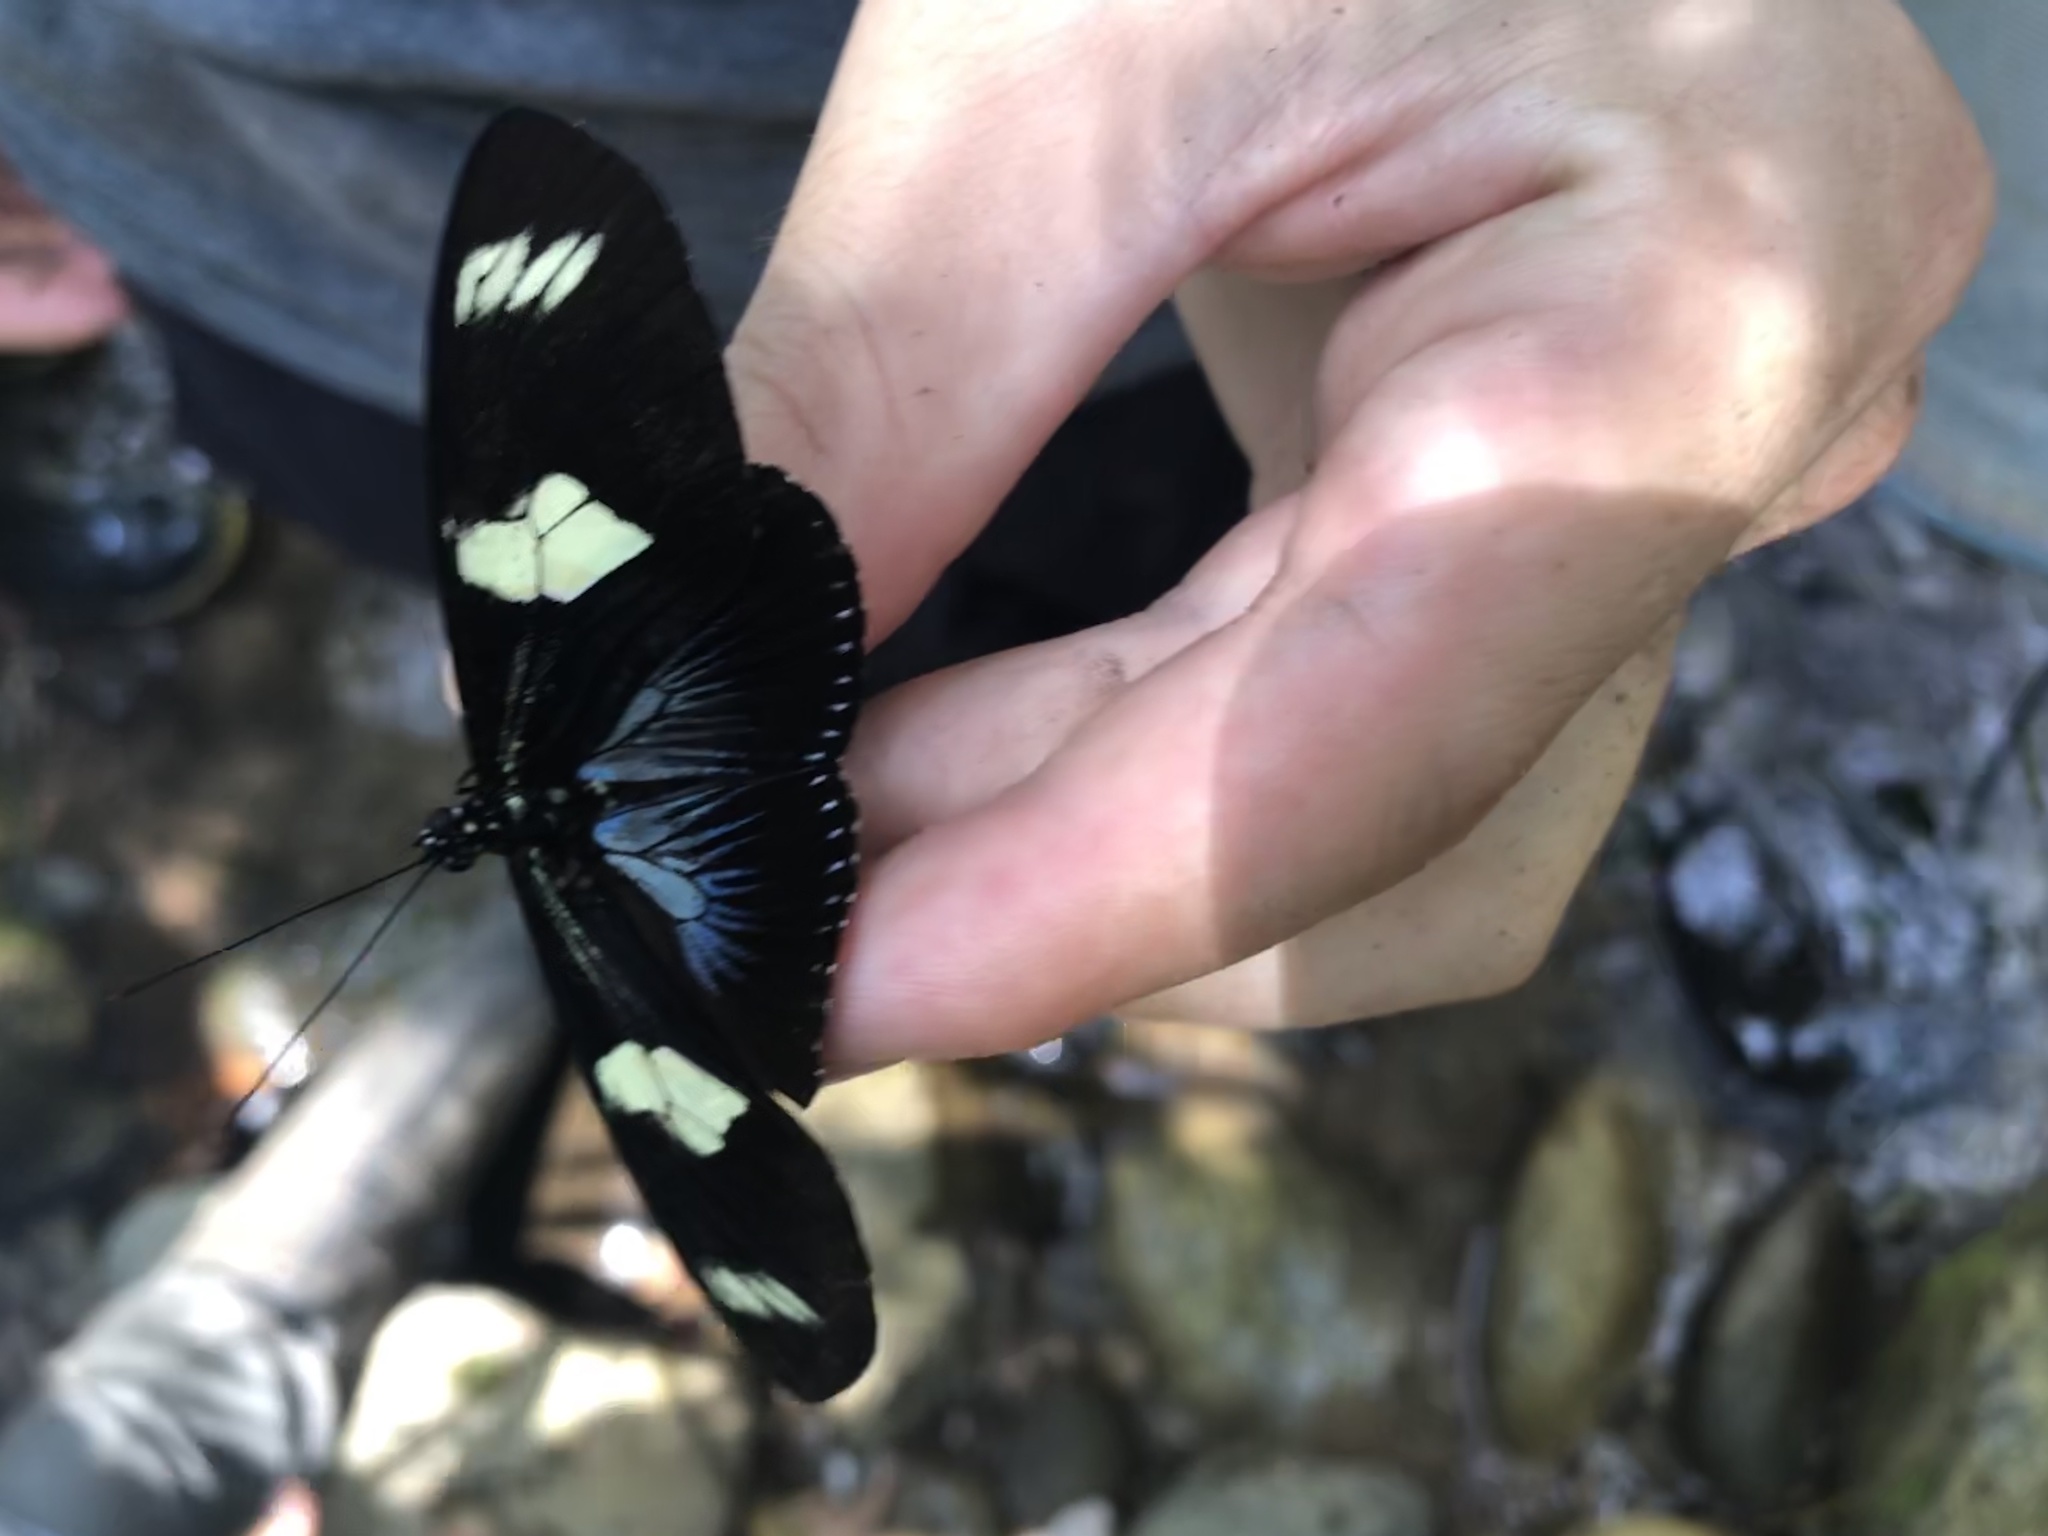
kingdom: Animalia
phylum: Arthropoda
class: Insecta
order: Lepidoptera
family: Nymphalidae
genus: Heliconius
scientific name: Heliconius doris
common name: Doris longwing
